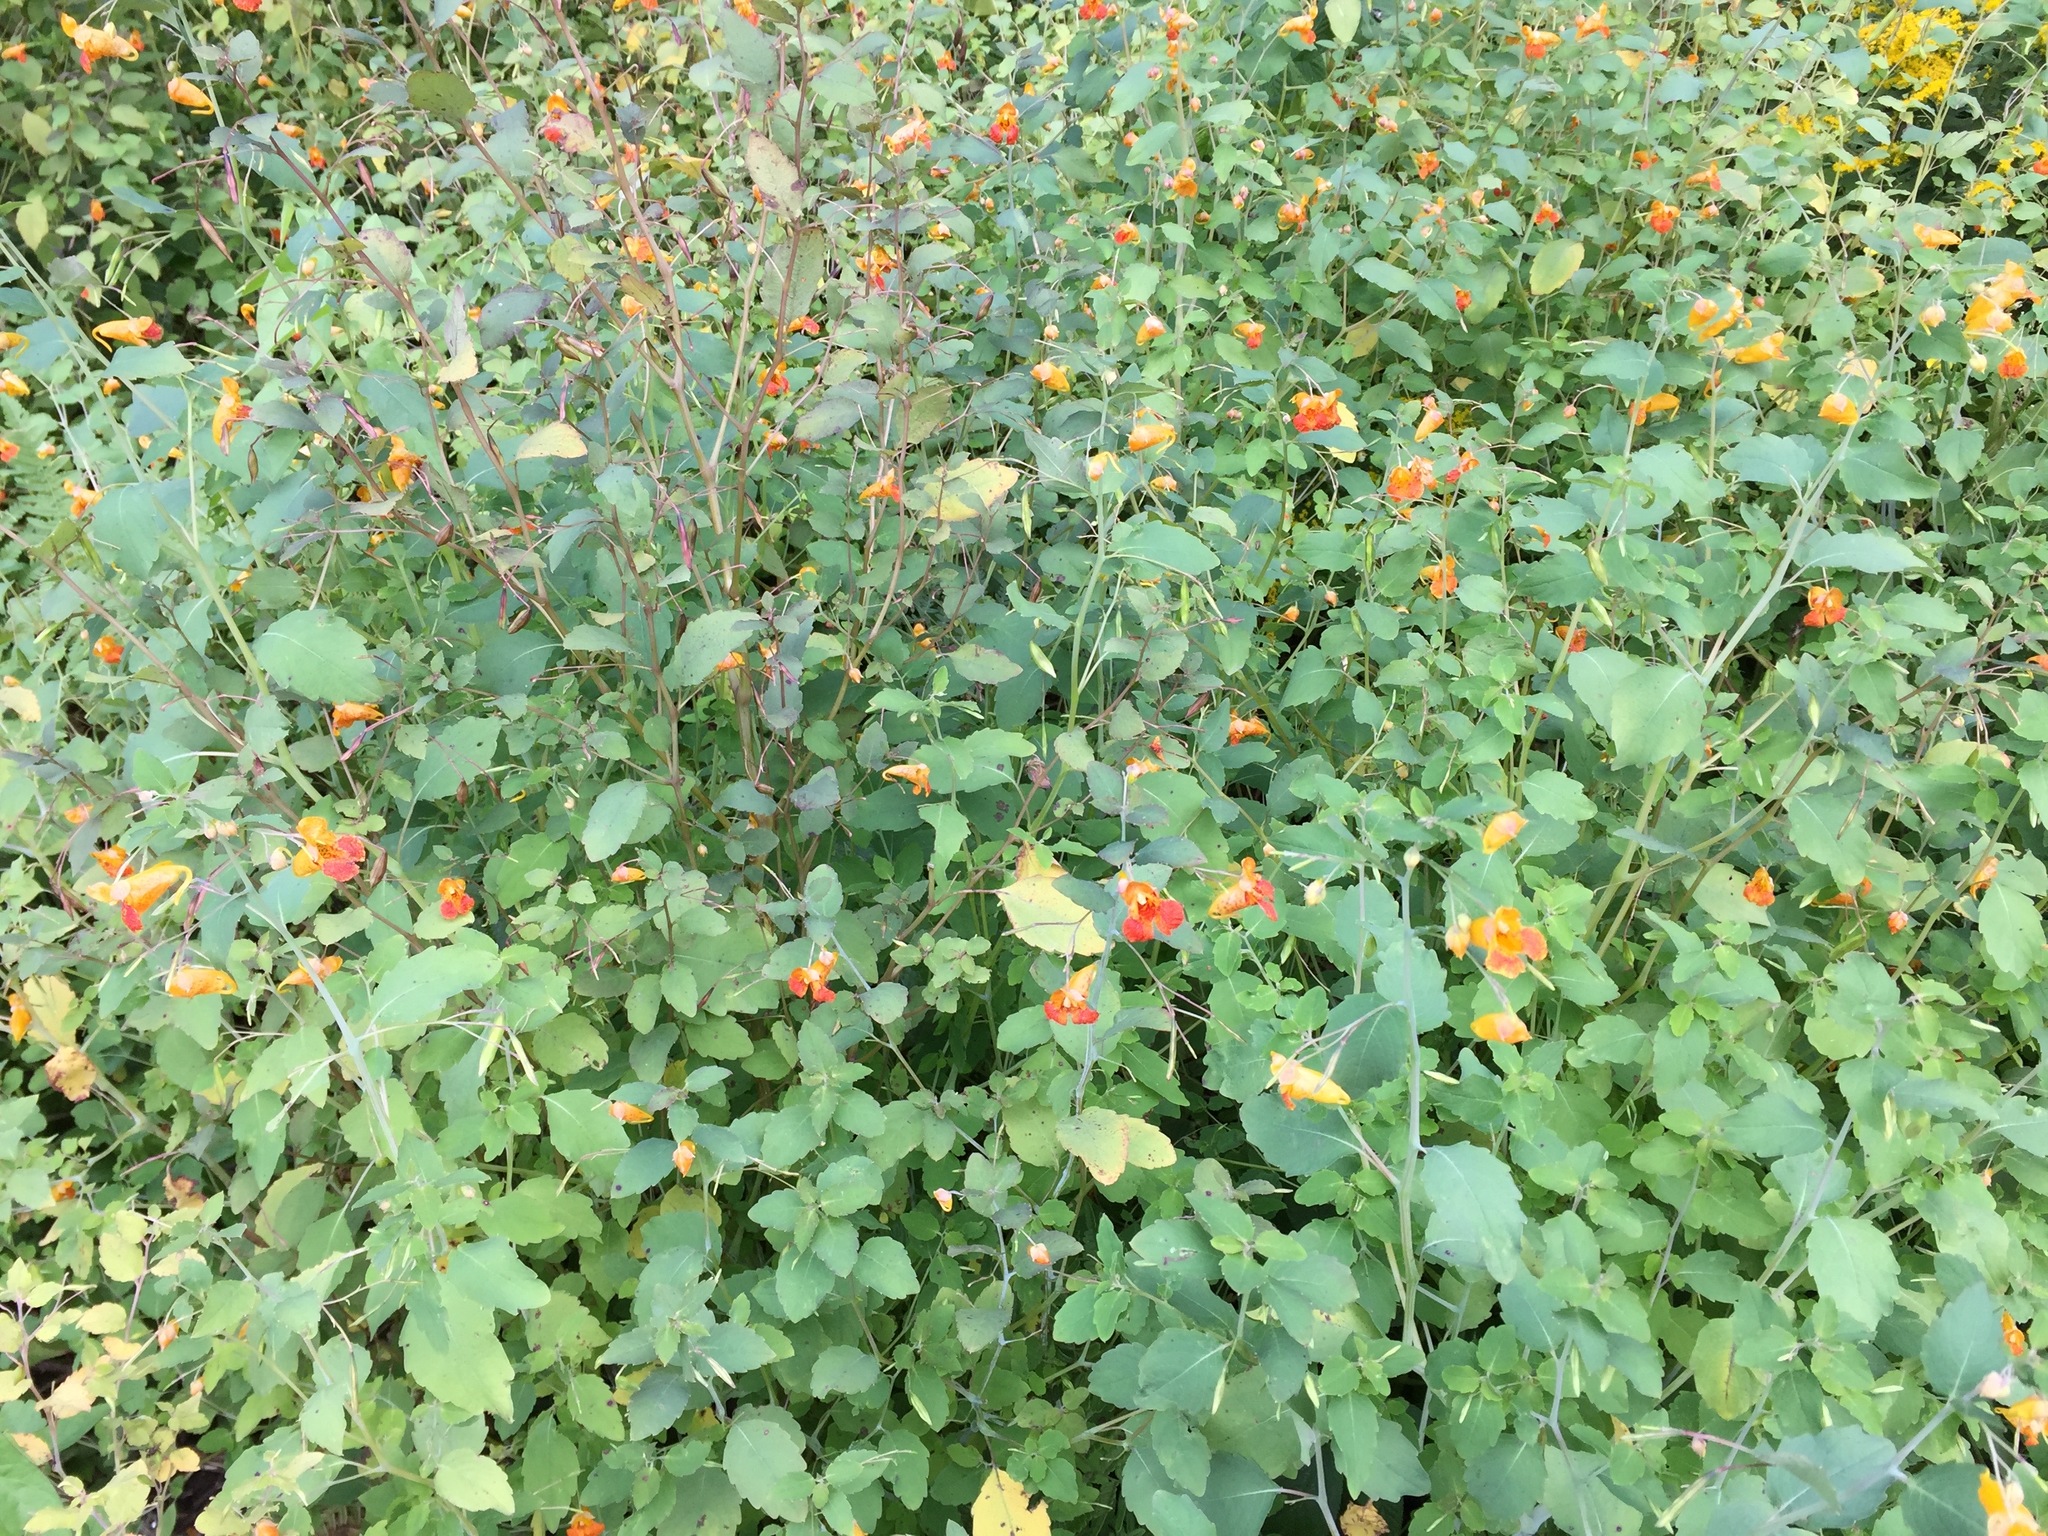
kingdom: Plantae
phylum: Tracheophyta
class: Magnoliopsida
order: Ericales
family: Balsaminaceae
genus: Impatiens
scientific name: Impatiens capensis
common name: Orange balsam
